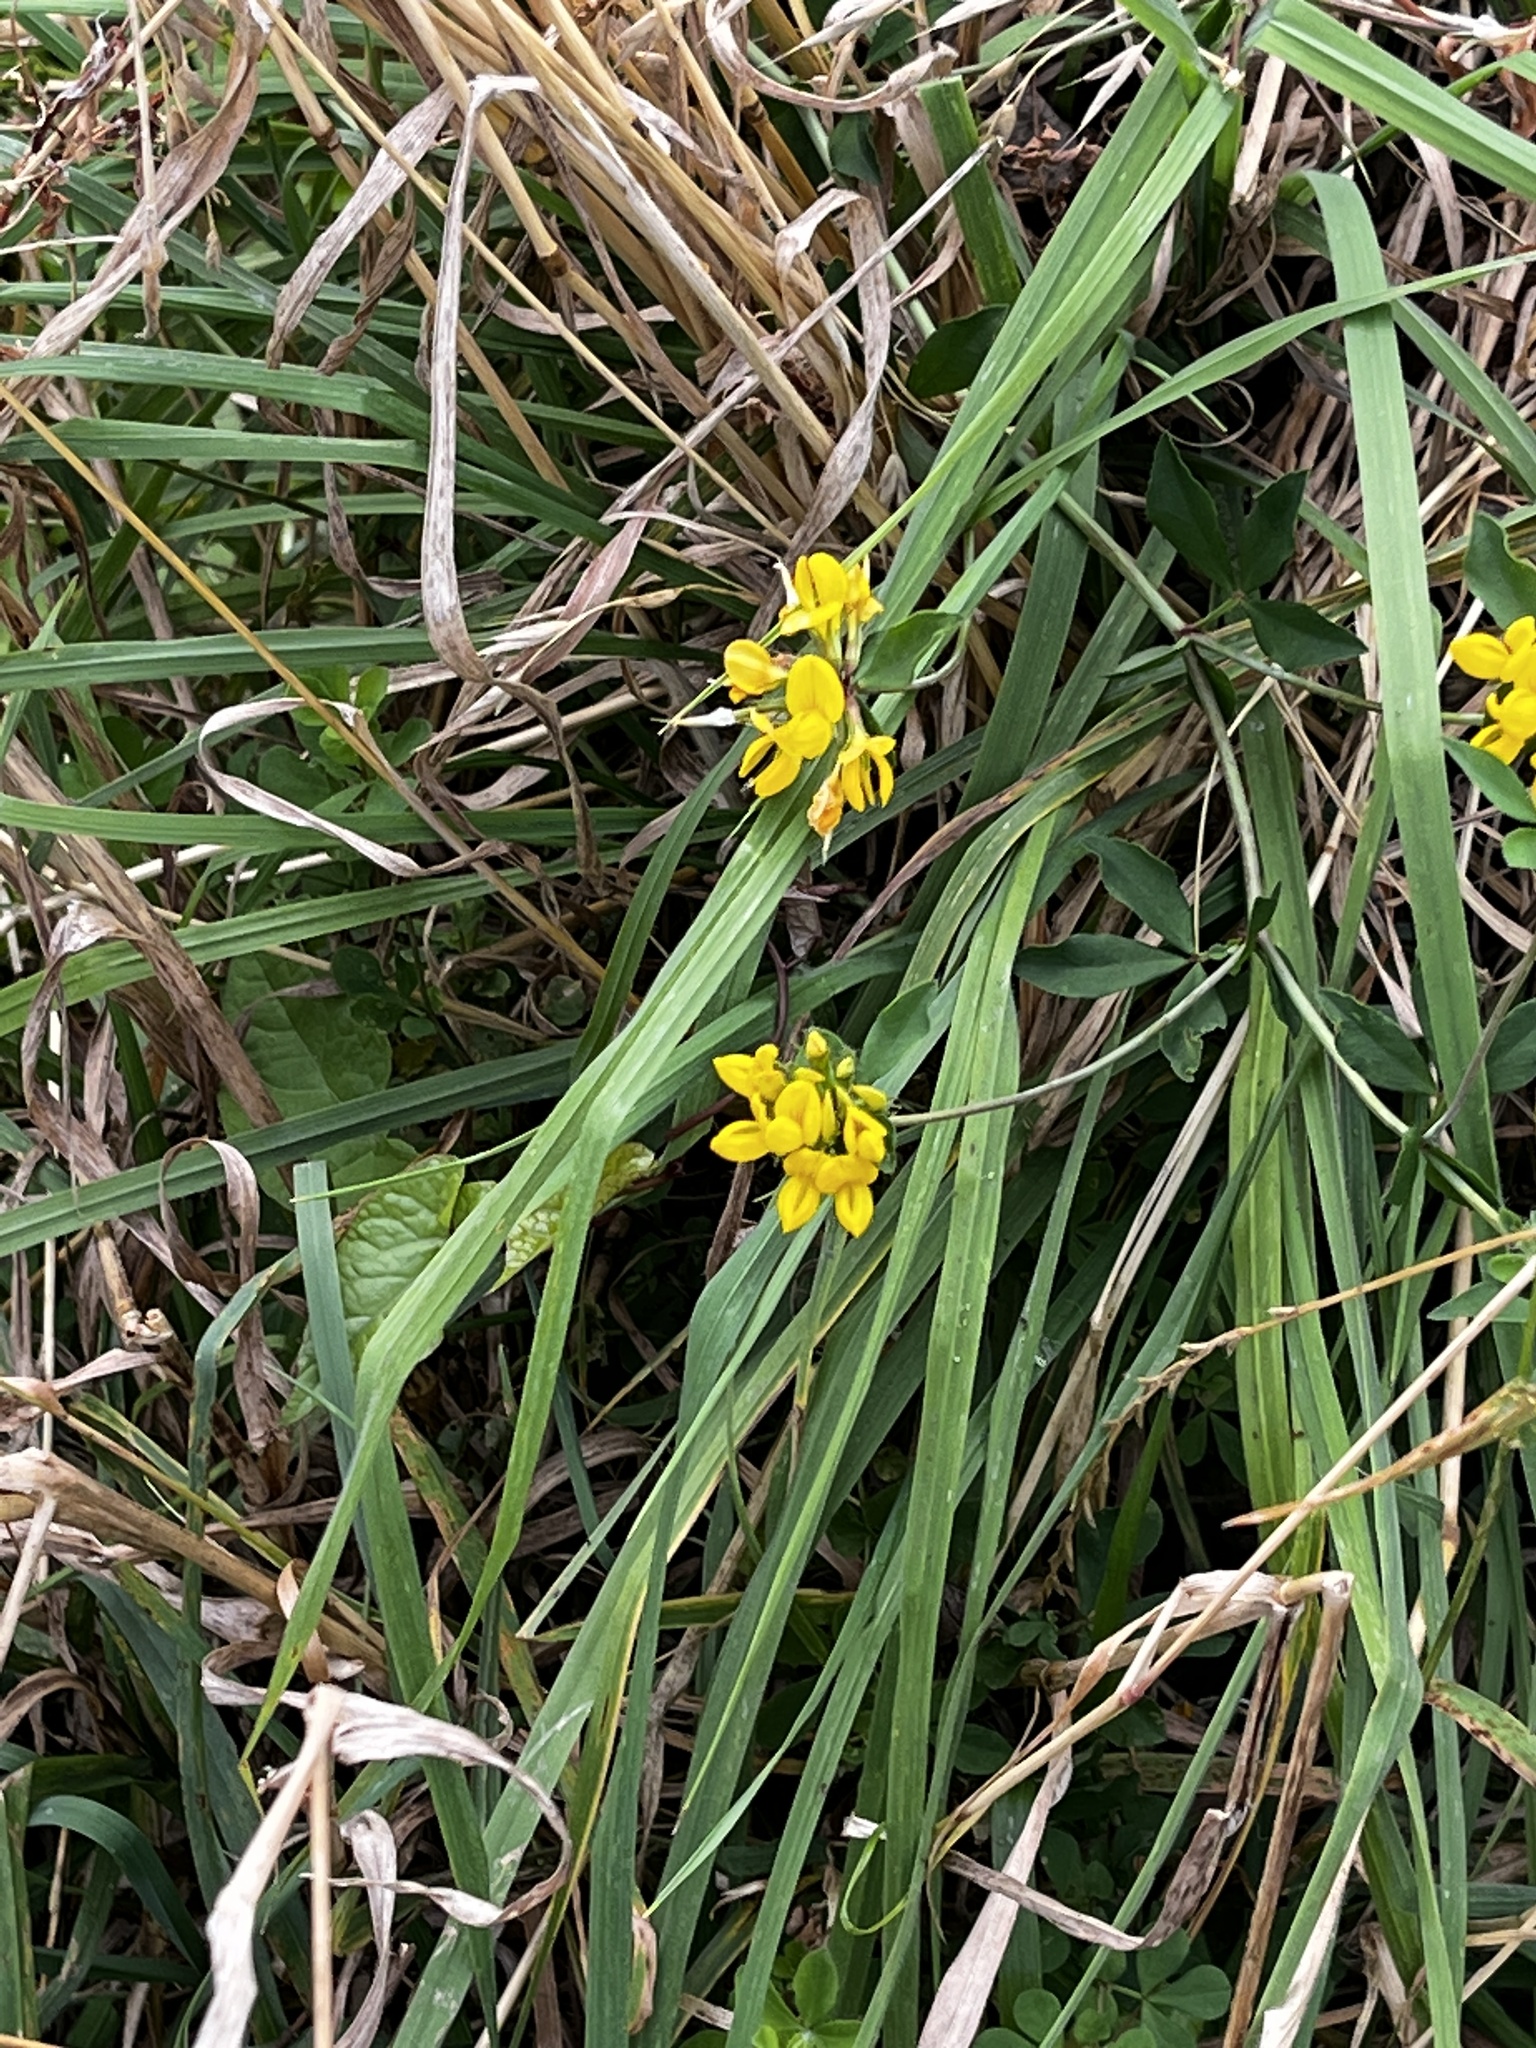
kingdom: Plantae
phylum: Tracheophyta
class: Magnoliopsida
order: Fabales
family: Fabaceae
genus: Lotus
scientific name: Lotus pedunculatus
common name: Greater birdsfoot-trefoil
